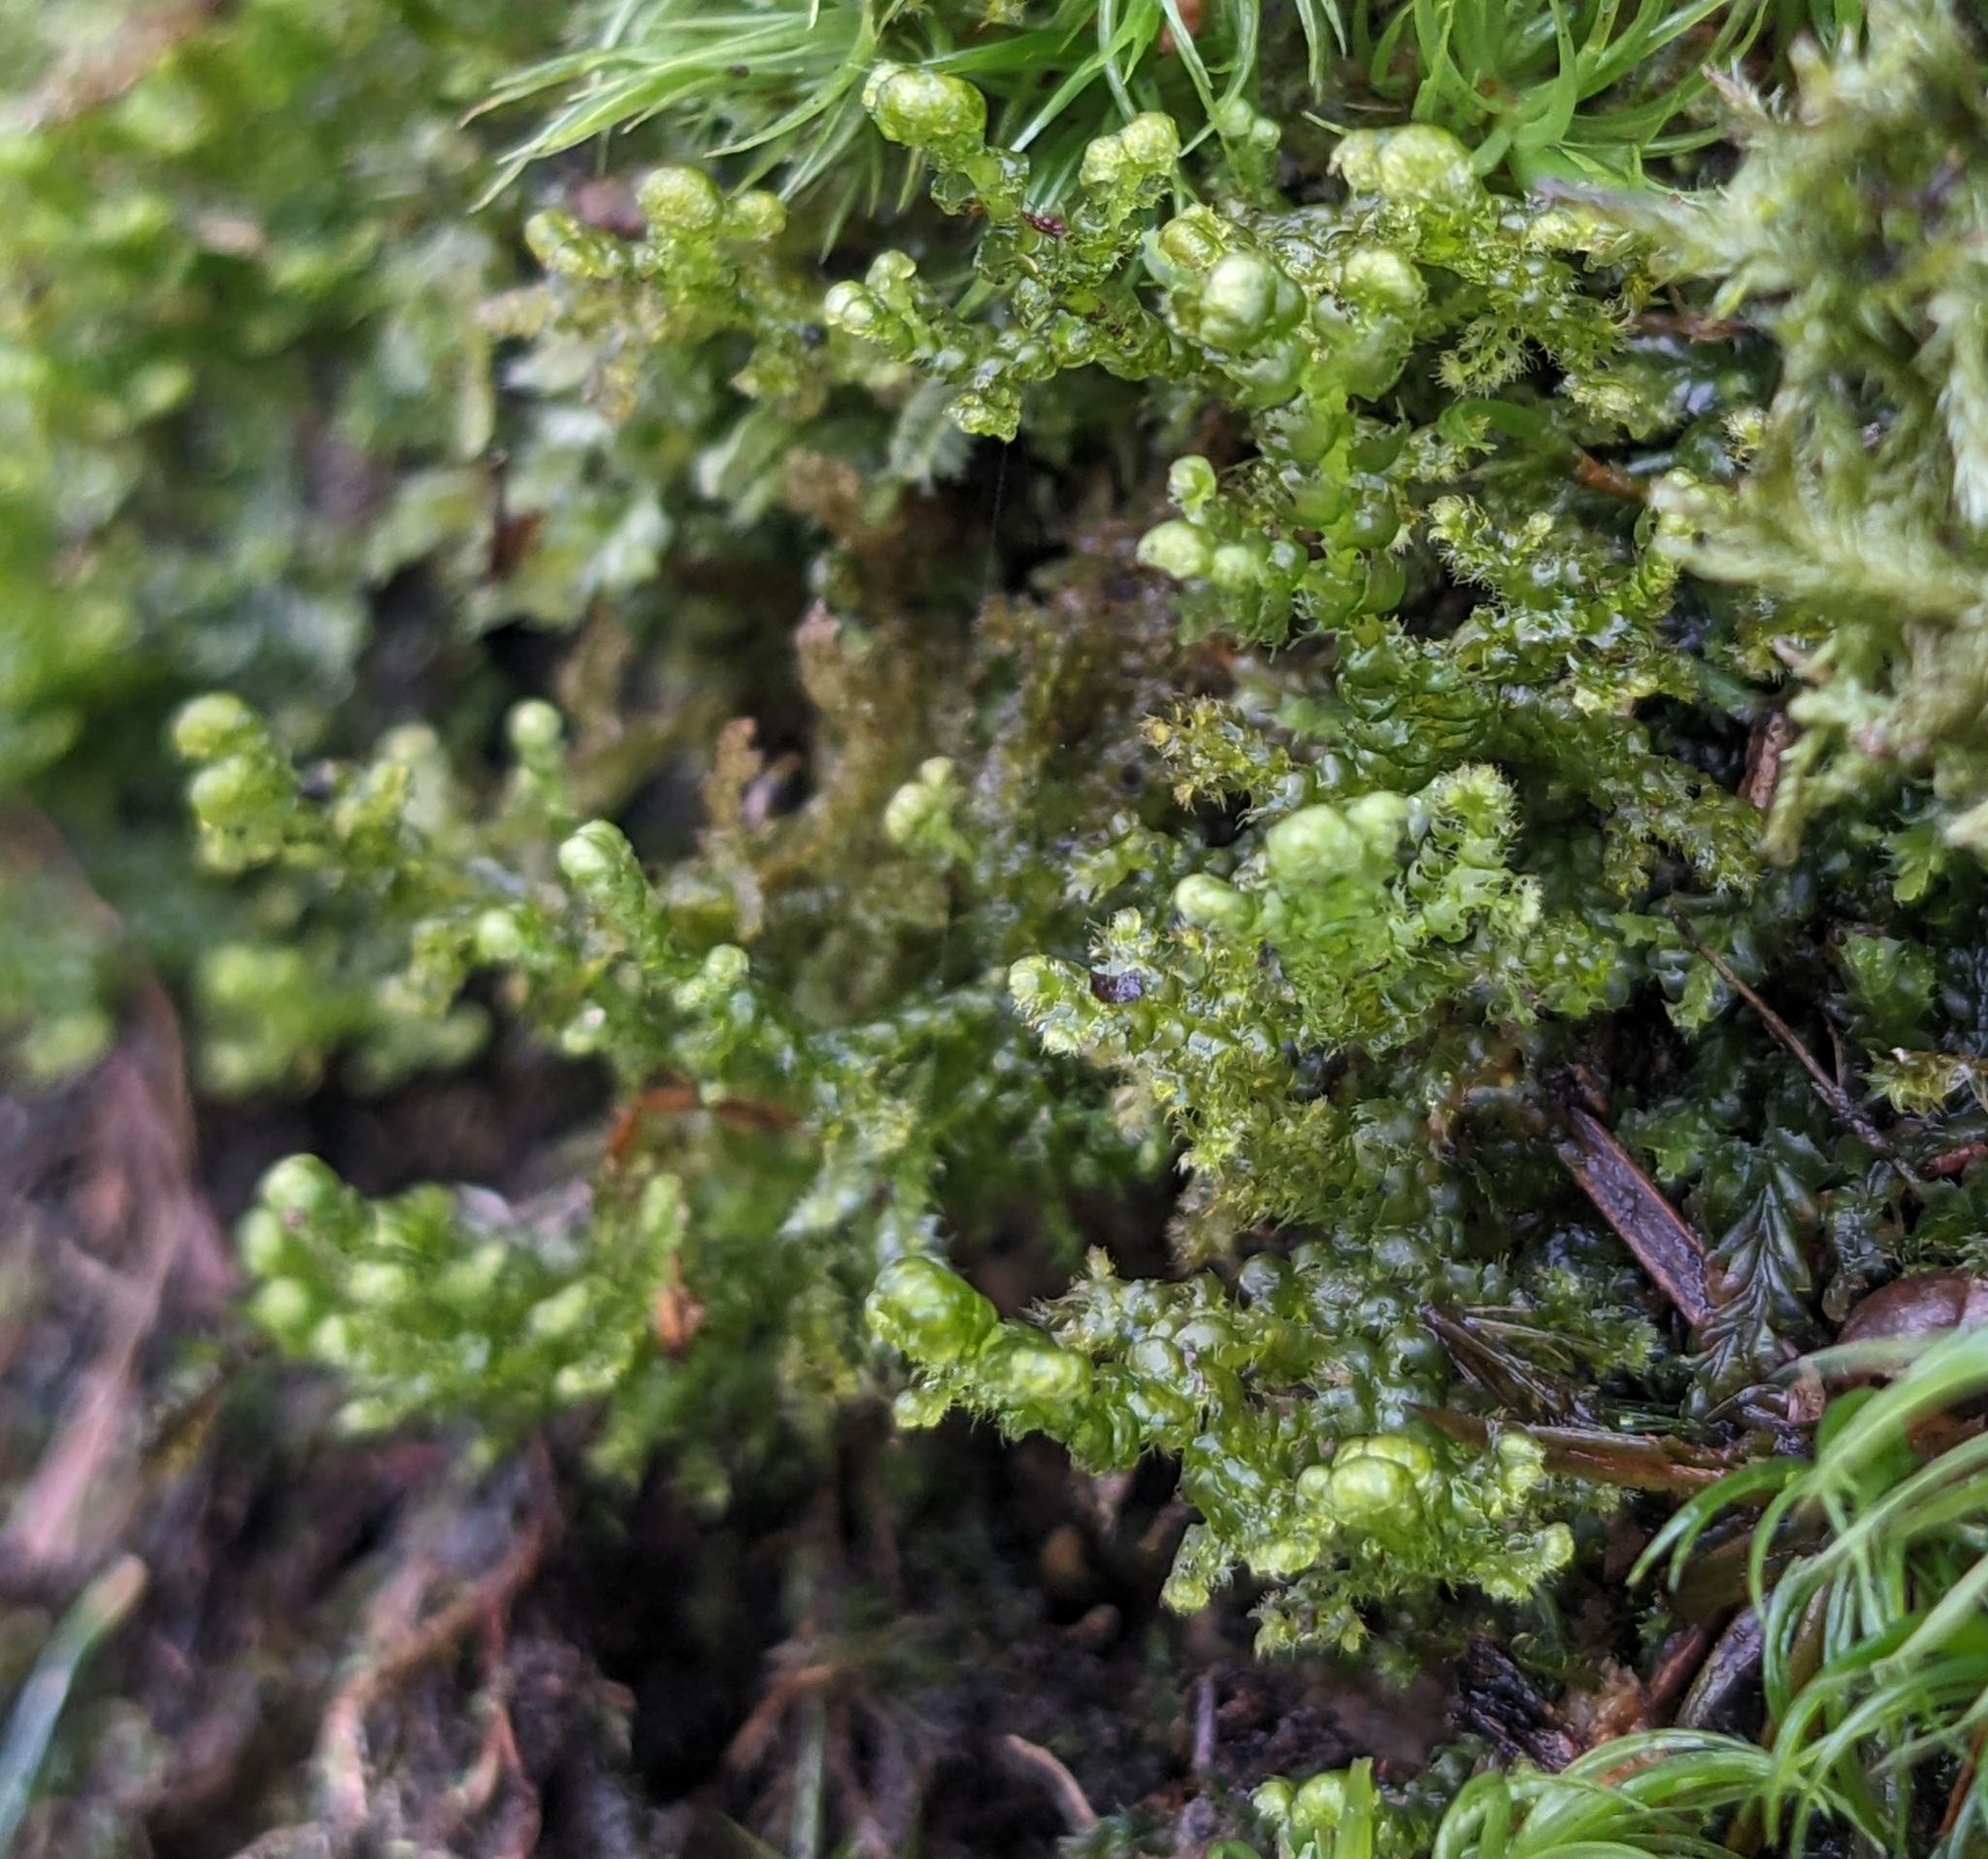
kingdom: Plantae
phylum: Marchantiophyta
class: Jungermanniopsida
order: Ptilidiales
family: Ptilidiaceae
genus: Ptilidium
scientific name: Ptilidium ciliare
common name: Ciliate fringewort
